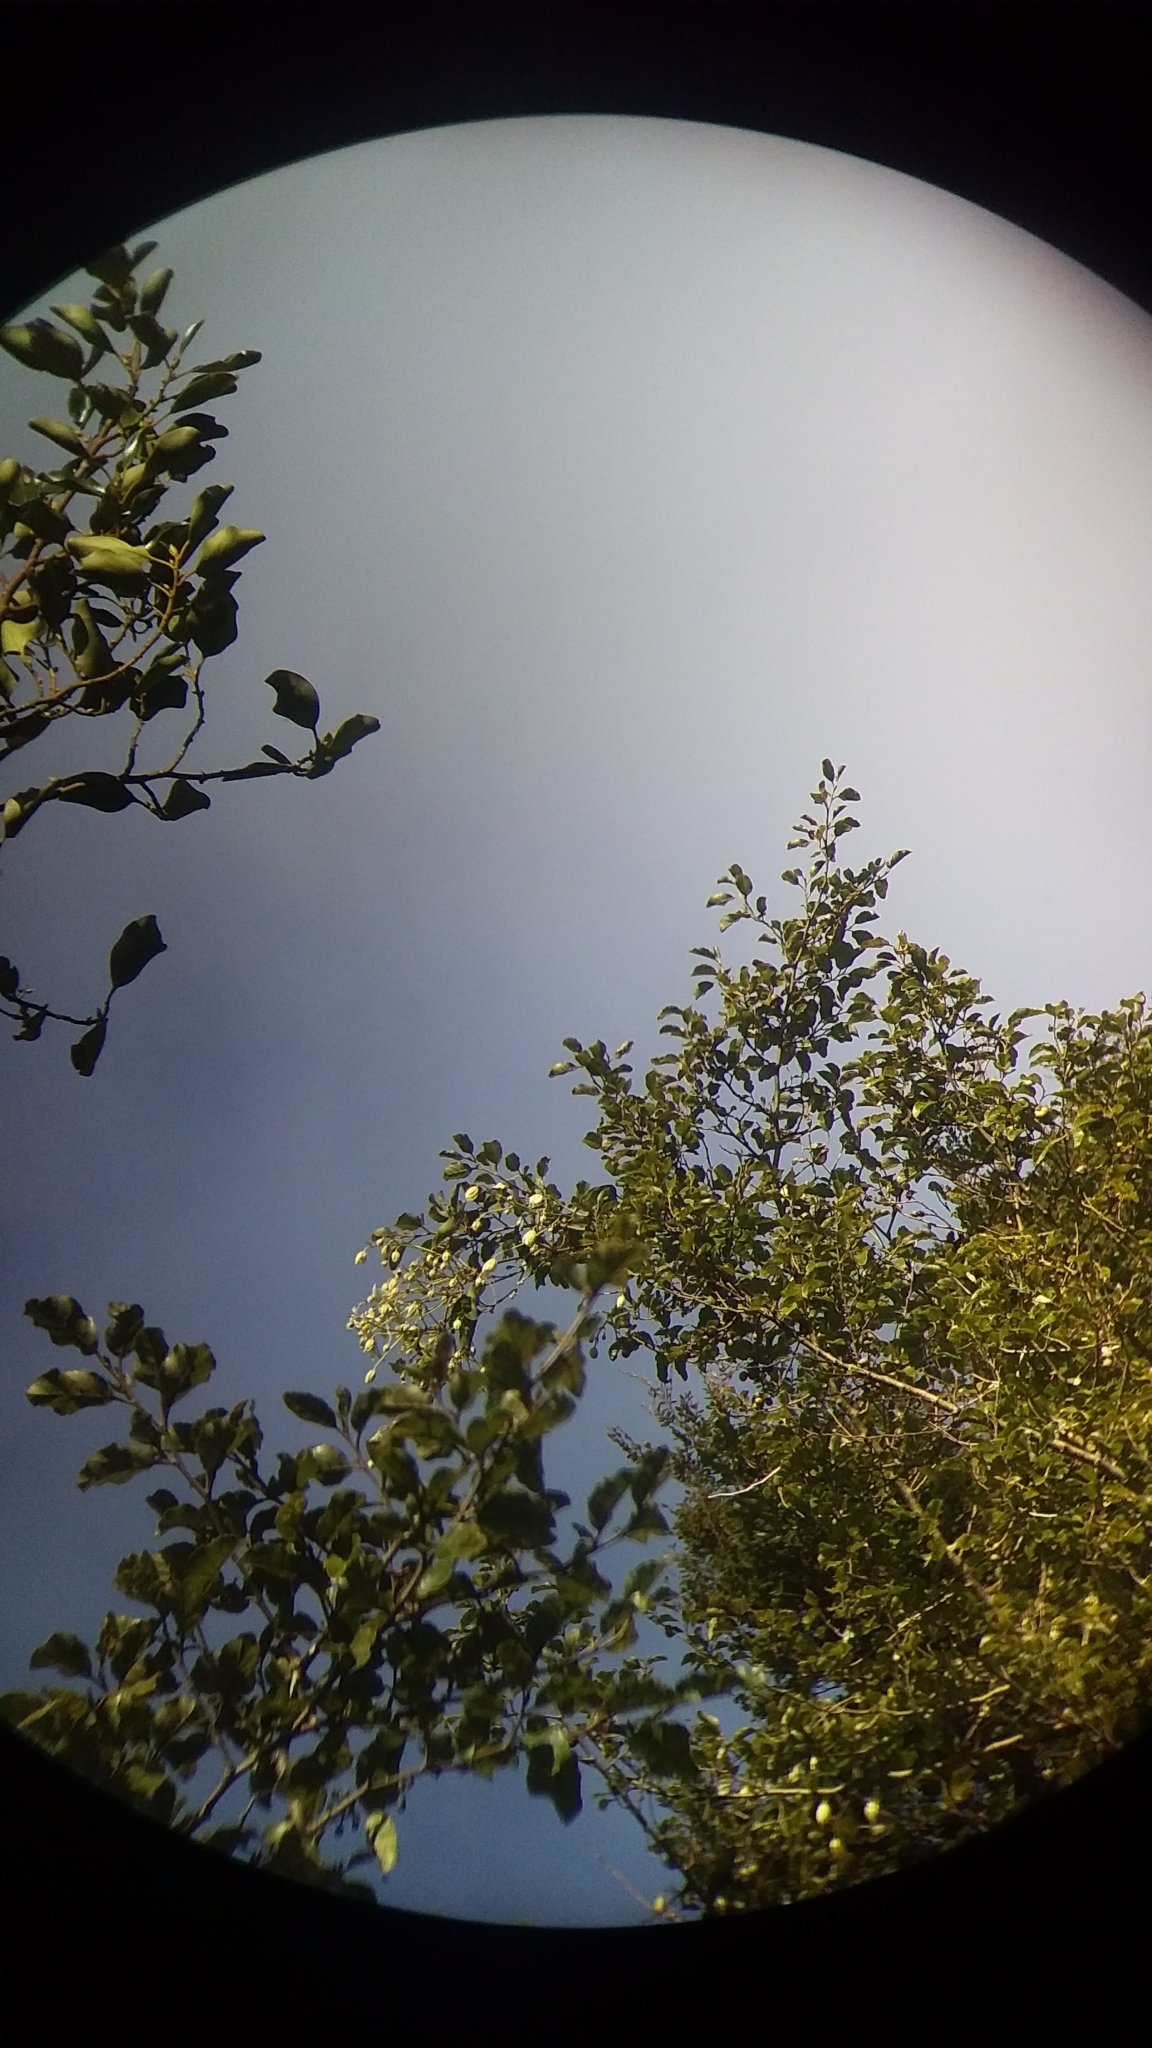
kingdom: Plantae
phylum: Tracheophyta
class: Magnoliopsida
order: Ranunculales
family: Ranunculaceae
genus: Clematis
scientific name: Clematis paniculata
